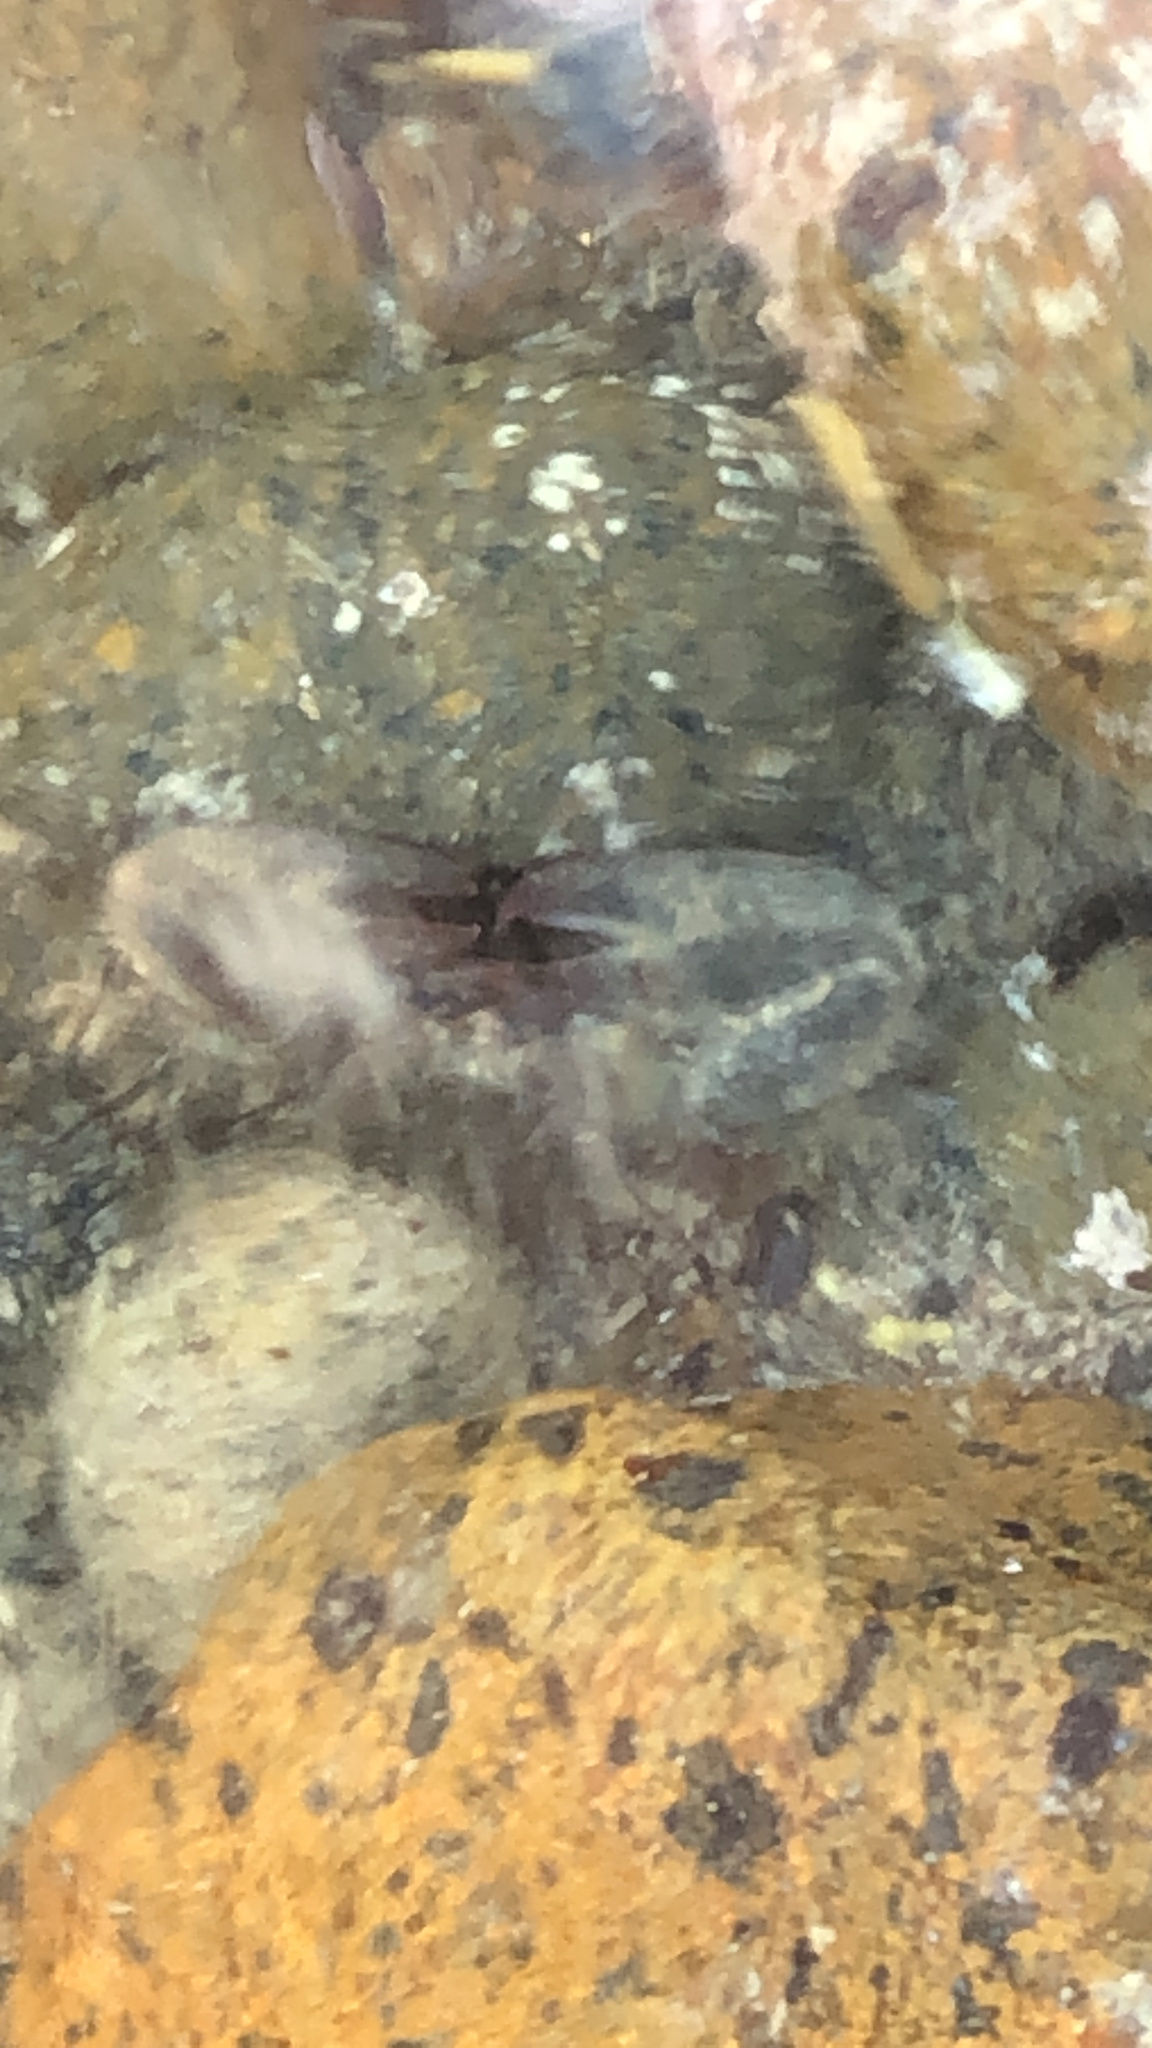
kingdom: Animalia
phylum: Arthropoda
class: Malacostraca
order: Decapoda
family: Porcellanidae
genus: Petrolisthes
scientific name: Petrolisthes elongatus
